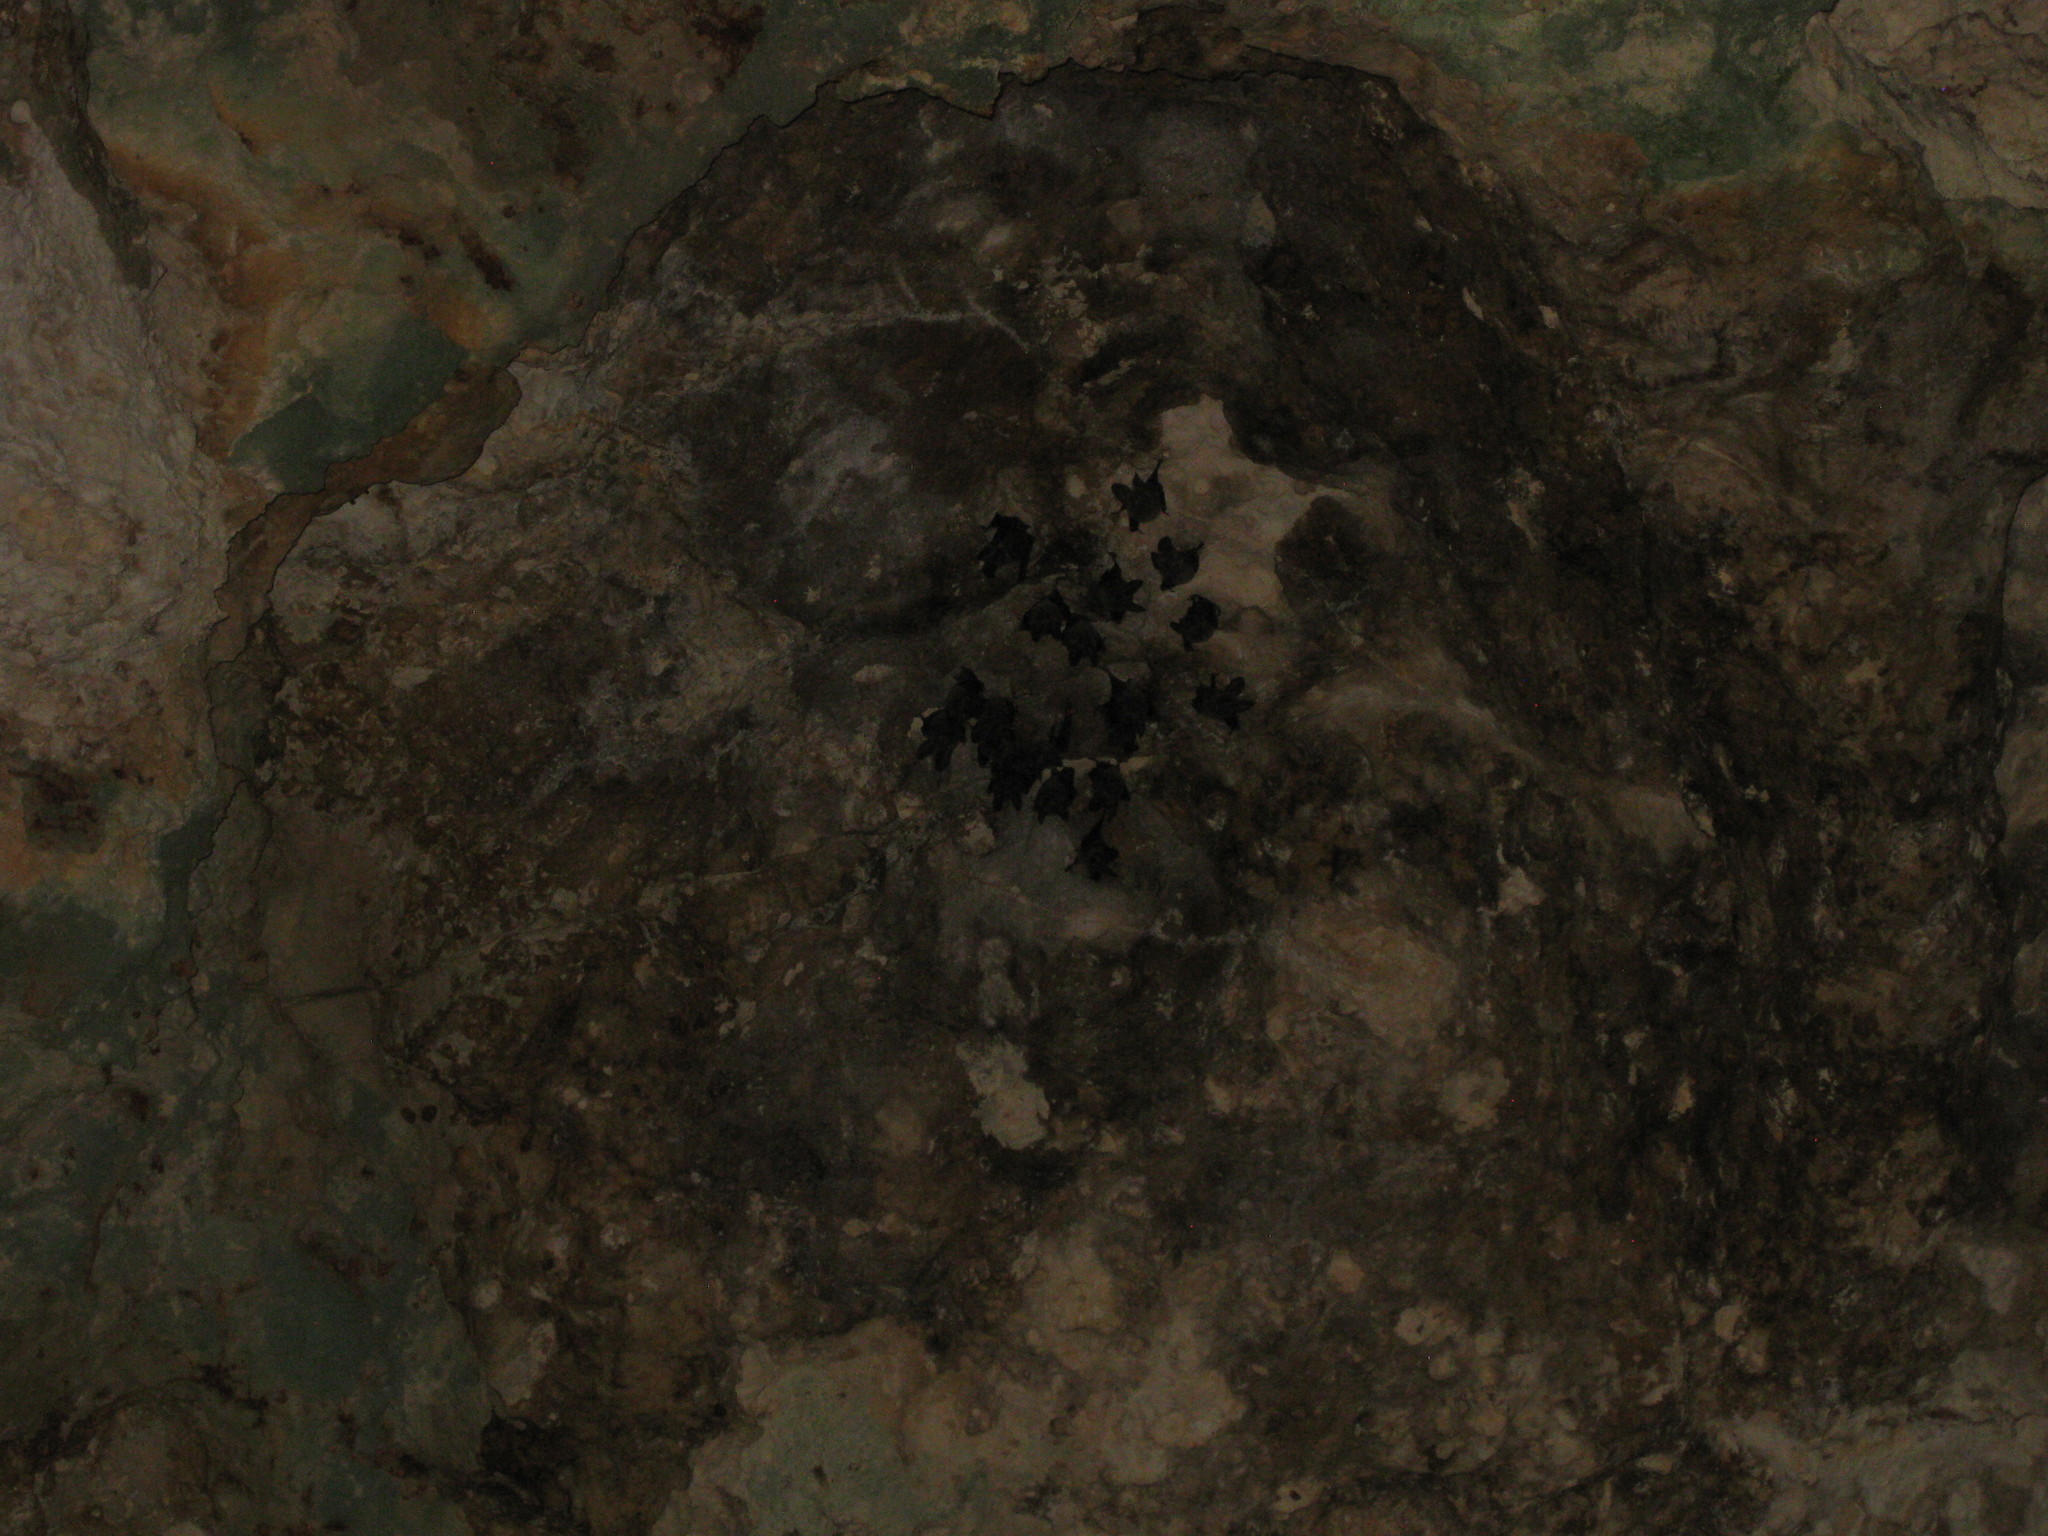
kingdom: Animalia
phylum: Chordata
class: Mammalia
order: Chiroptera
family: Phyllostomidae
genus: Macrotus
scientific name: Macrotus waterhousii
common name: Waterhouse's leaf-nosed bat
